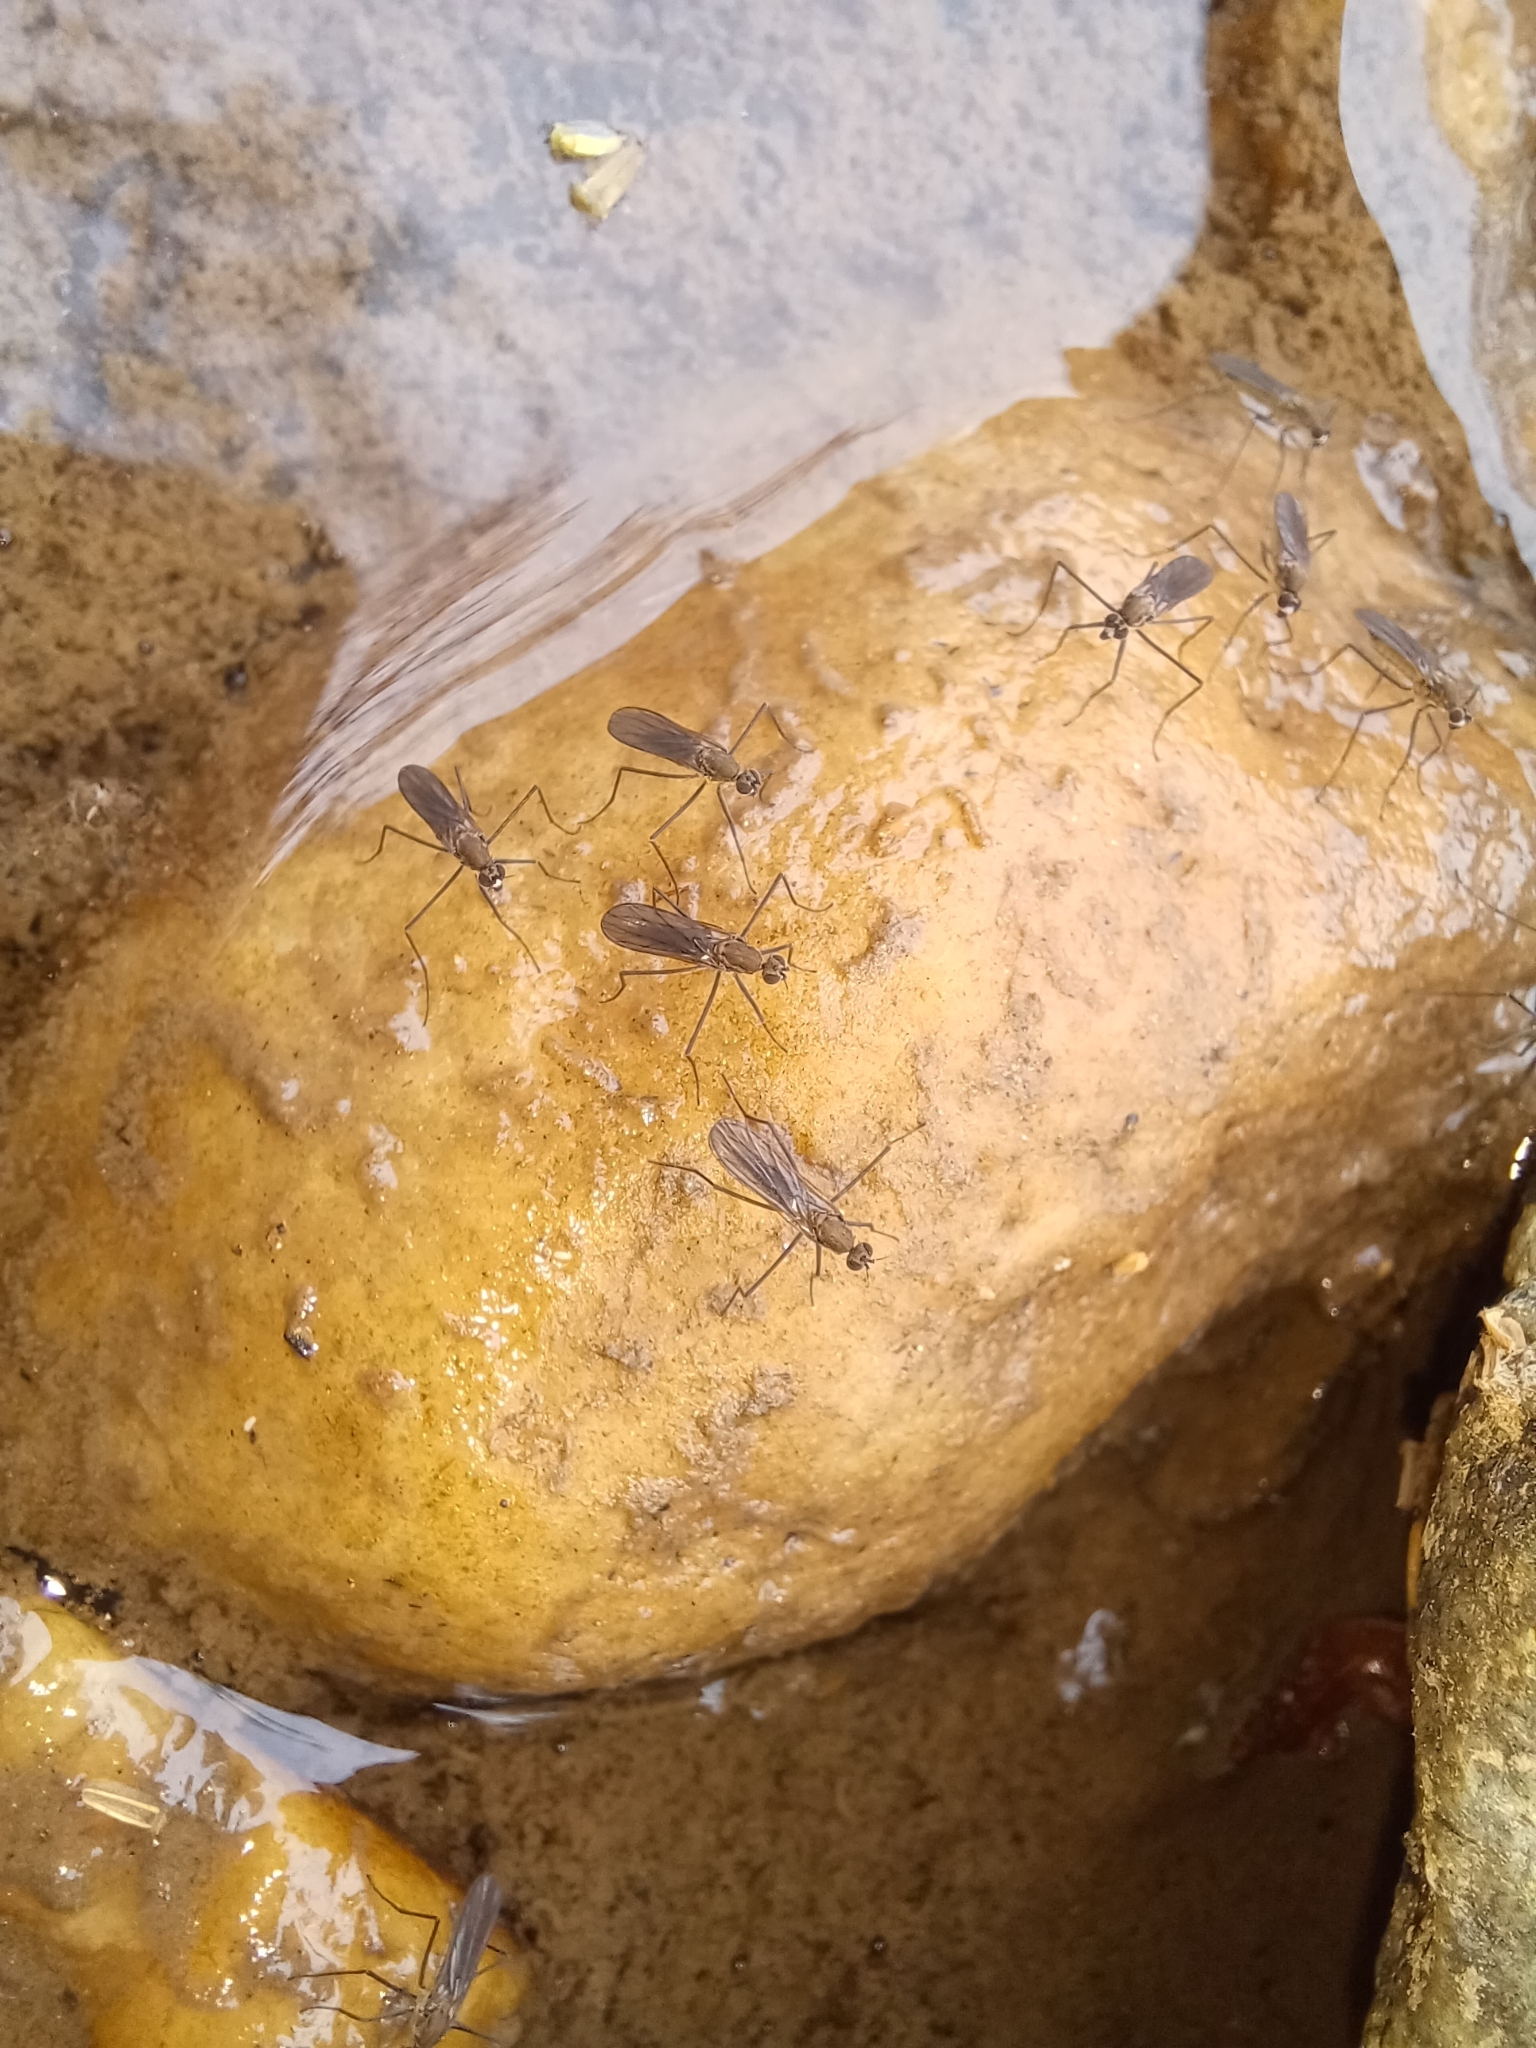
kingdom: Animalia
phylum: Arthropoda
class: Insecta
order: Diptera
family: Empididae
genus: Trichoclinocera
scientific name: Trichoclinocera pectinifemur
